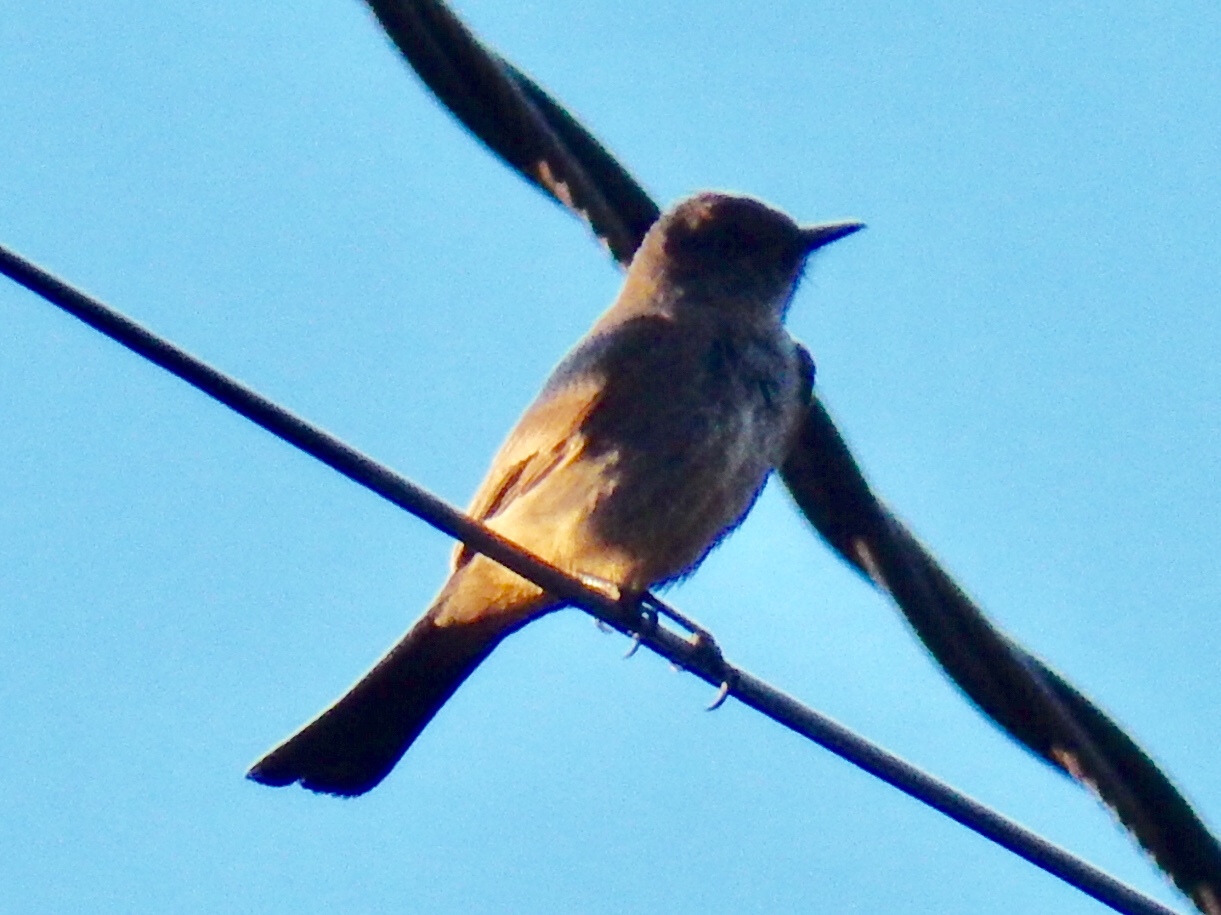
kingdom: Animalia
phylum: Chordata
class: Aves
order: Passeriformes
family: Tyrannidae
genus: Sayornis
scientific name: Sayornis saya
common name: Say's phoebe
